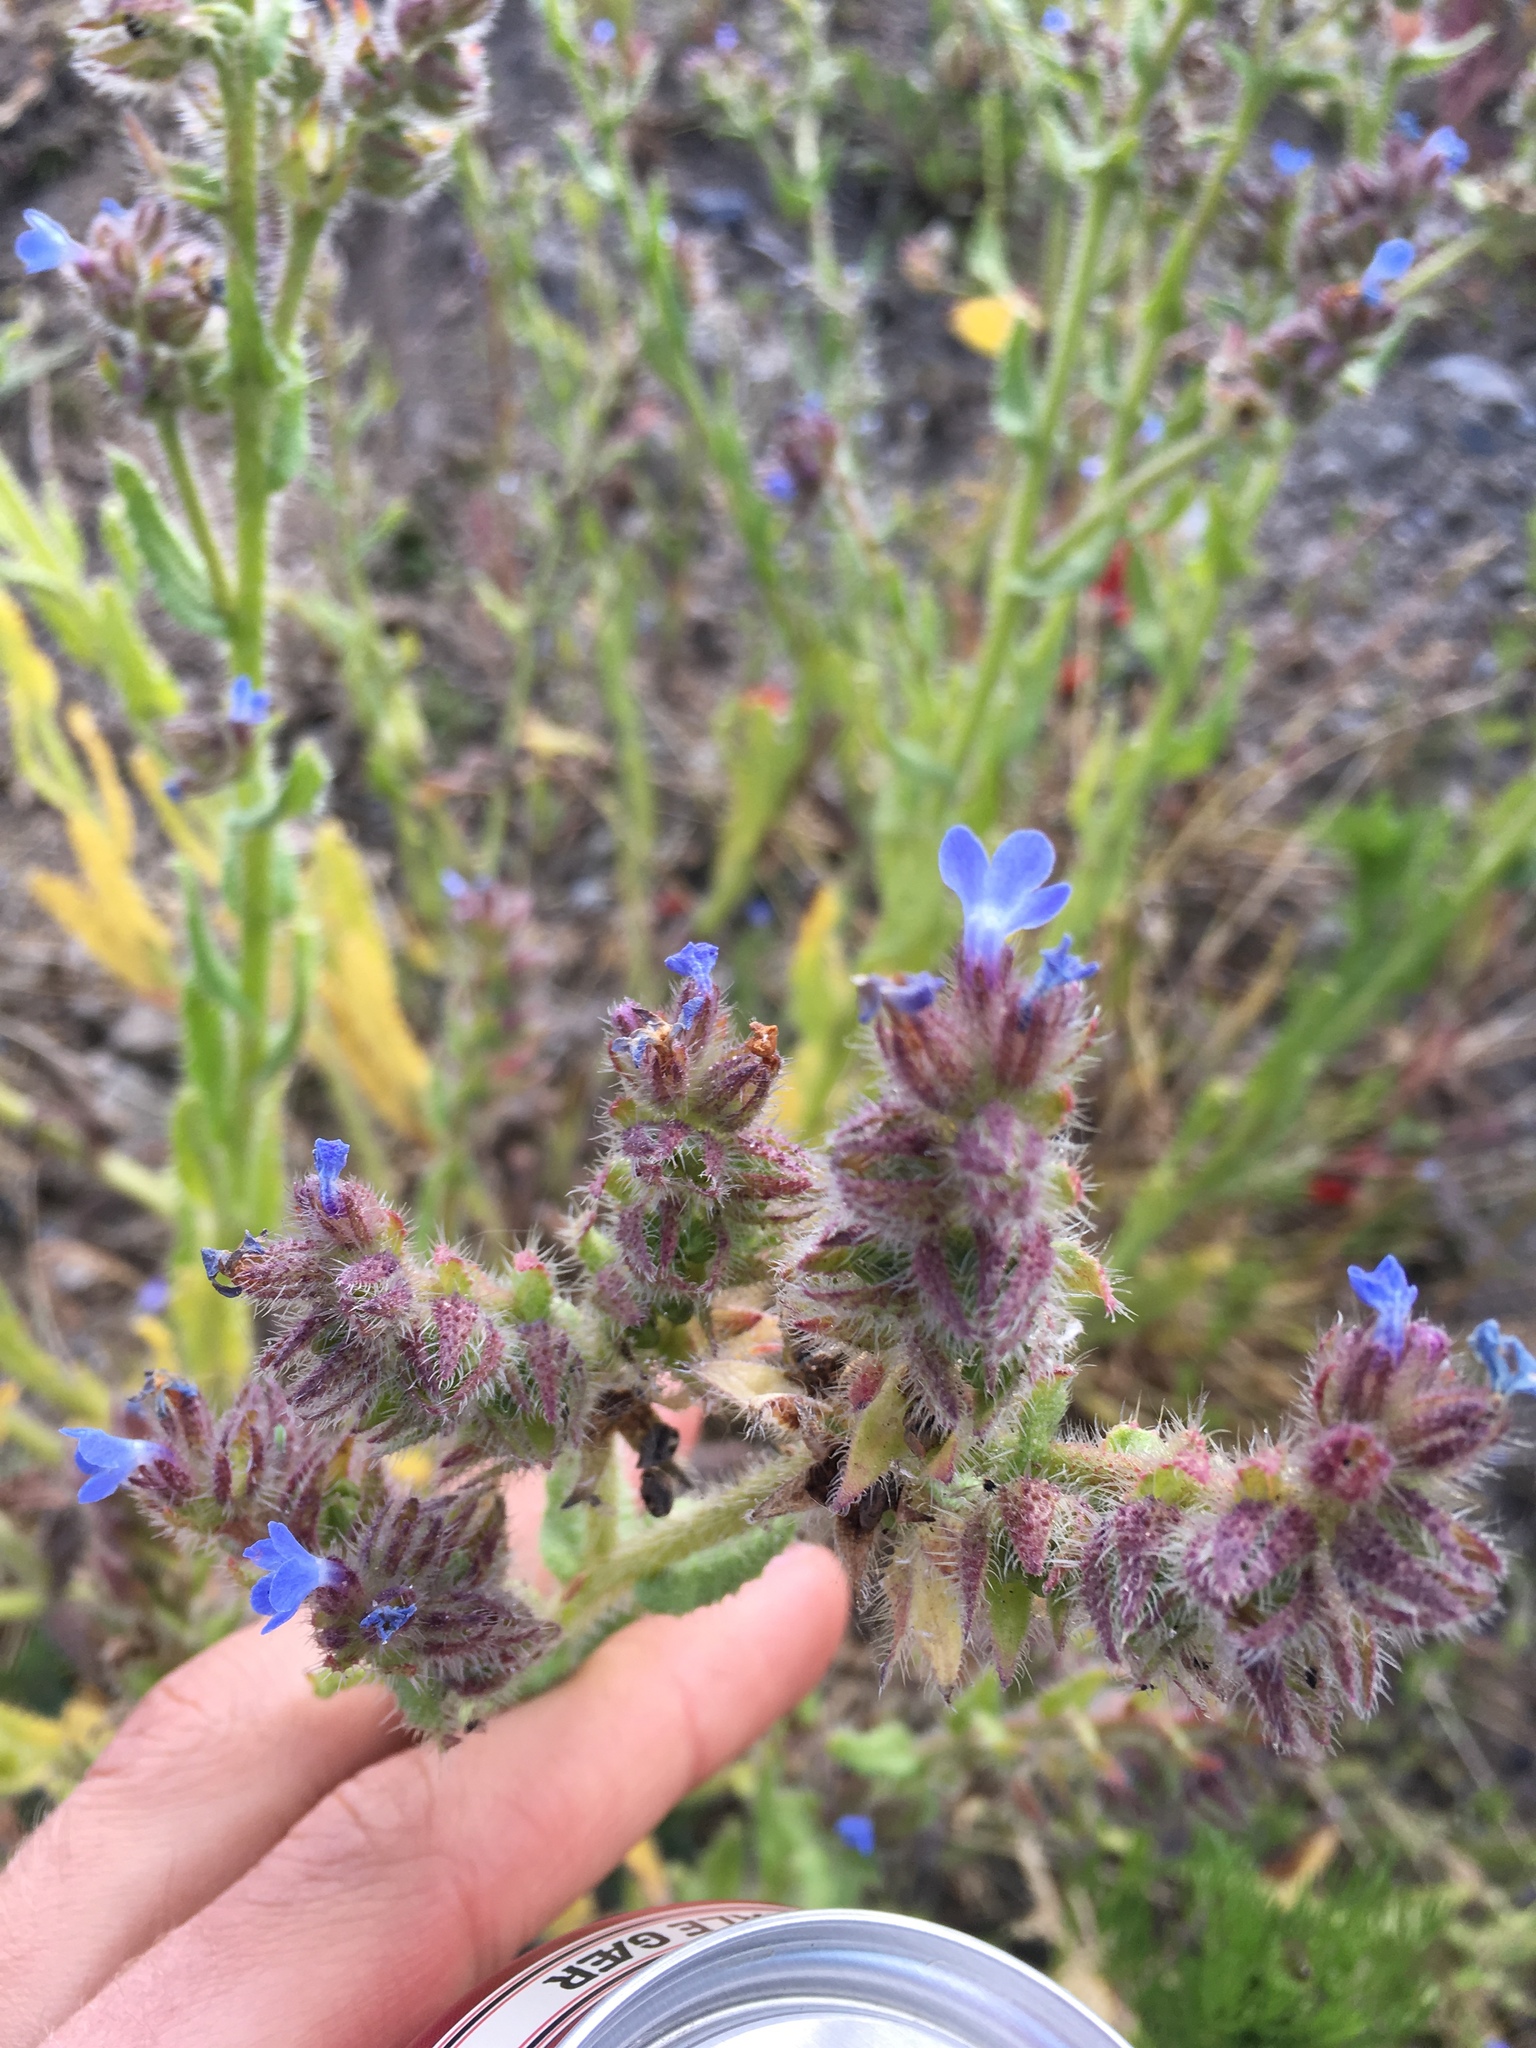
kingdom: Plantae
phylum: Tracheophyta
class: Magnoliopsida
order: Boraginales
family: Boraginaceae
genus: Lycopsis
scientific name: Lycopsis arvensis
